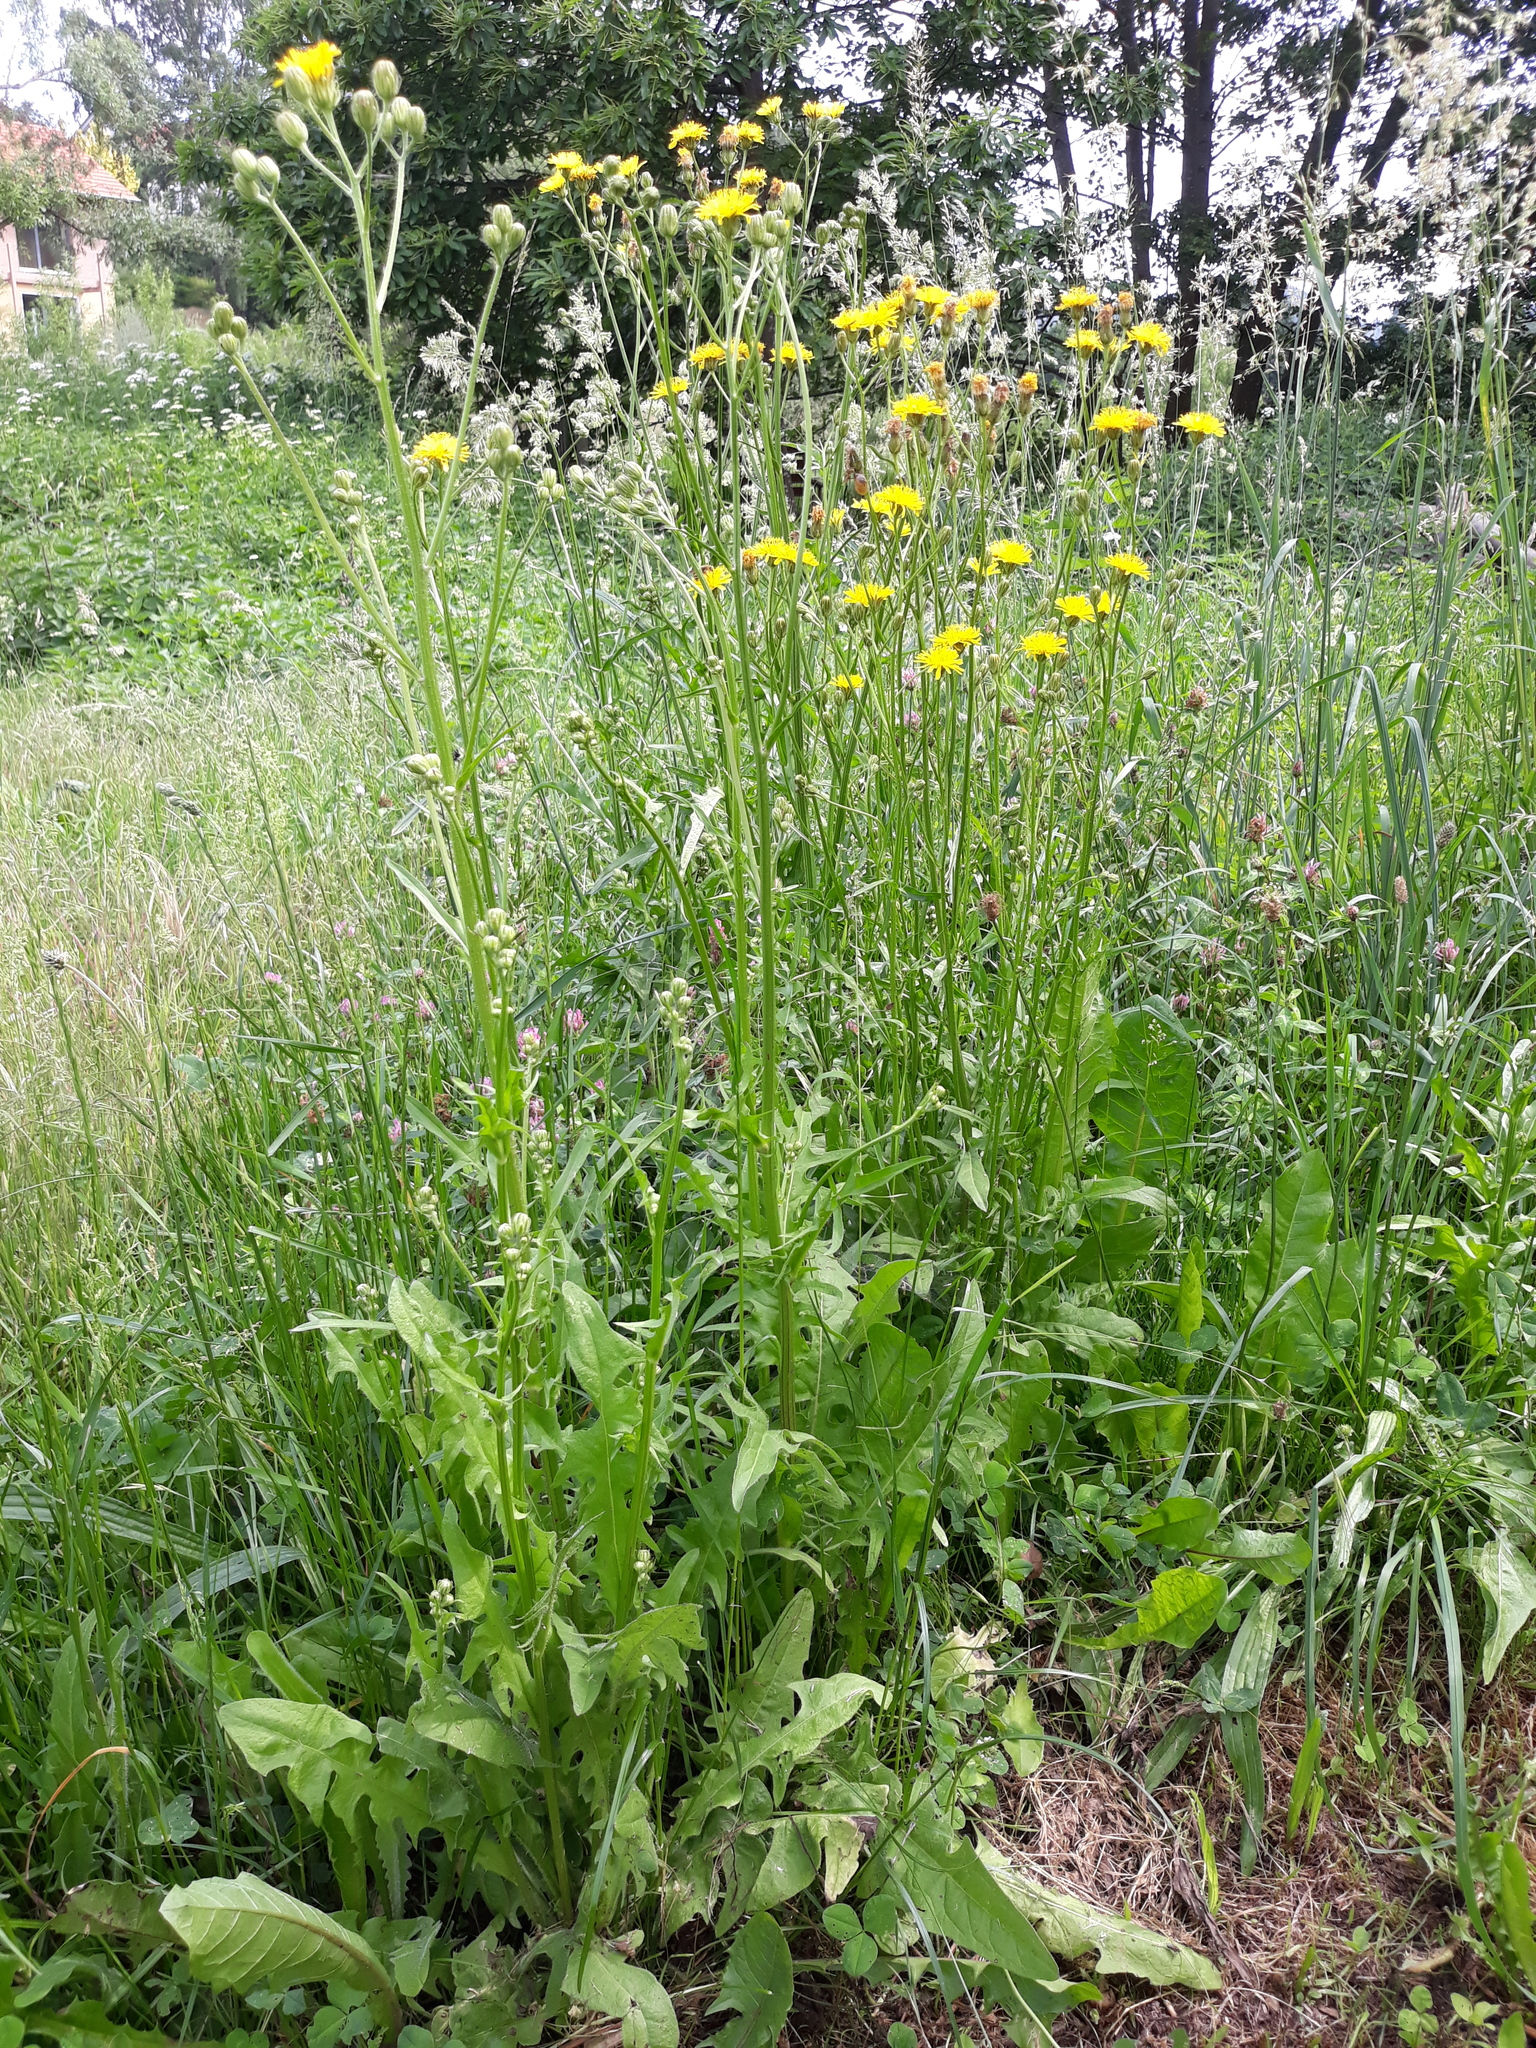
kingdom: Plantae
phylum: Tracheophyta
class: Magnoliopsida
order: Asterales
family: Asteraceae
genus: Crepis
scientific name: Crepis biennis
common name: Rough hawk's-beard
